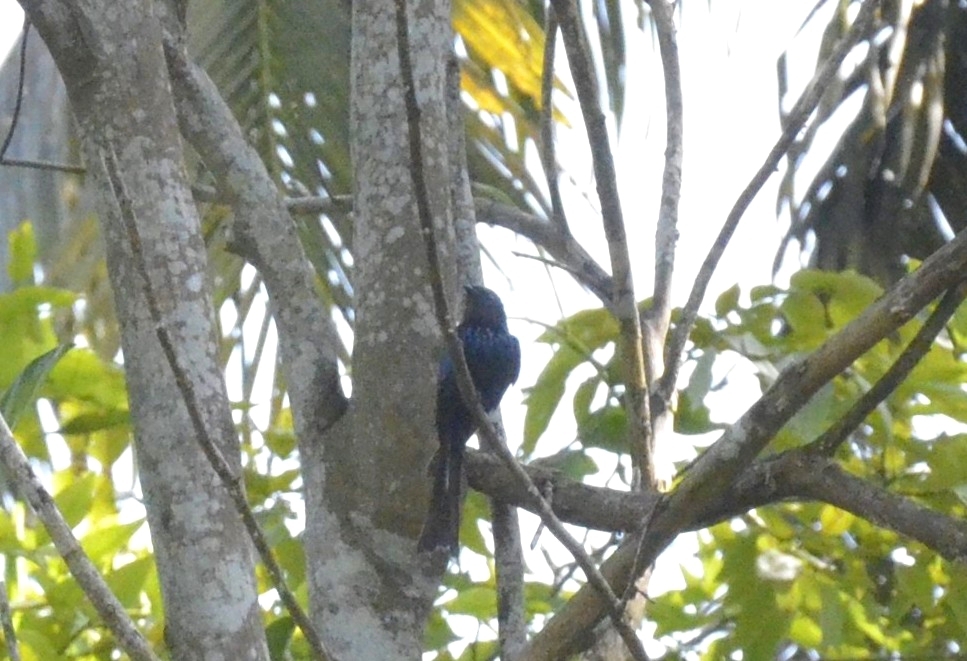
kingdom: Animalia
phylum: Chordata
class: Aves
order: Passeriformes
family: Dicruridae
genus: Dicrurus
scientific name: Dicrurus aeneus
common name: Bronzed drongo
